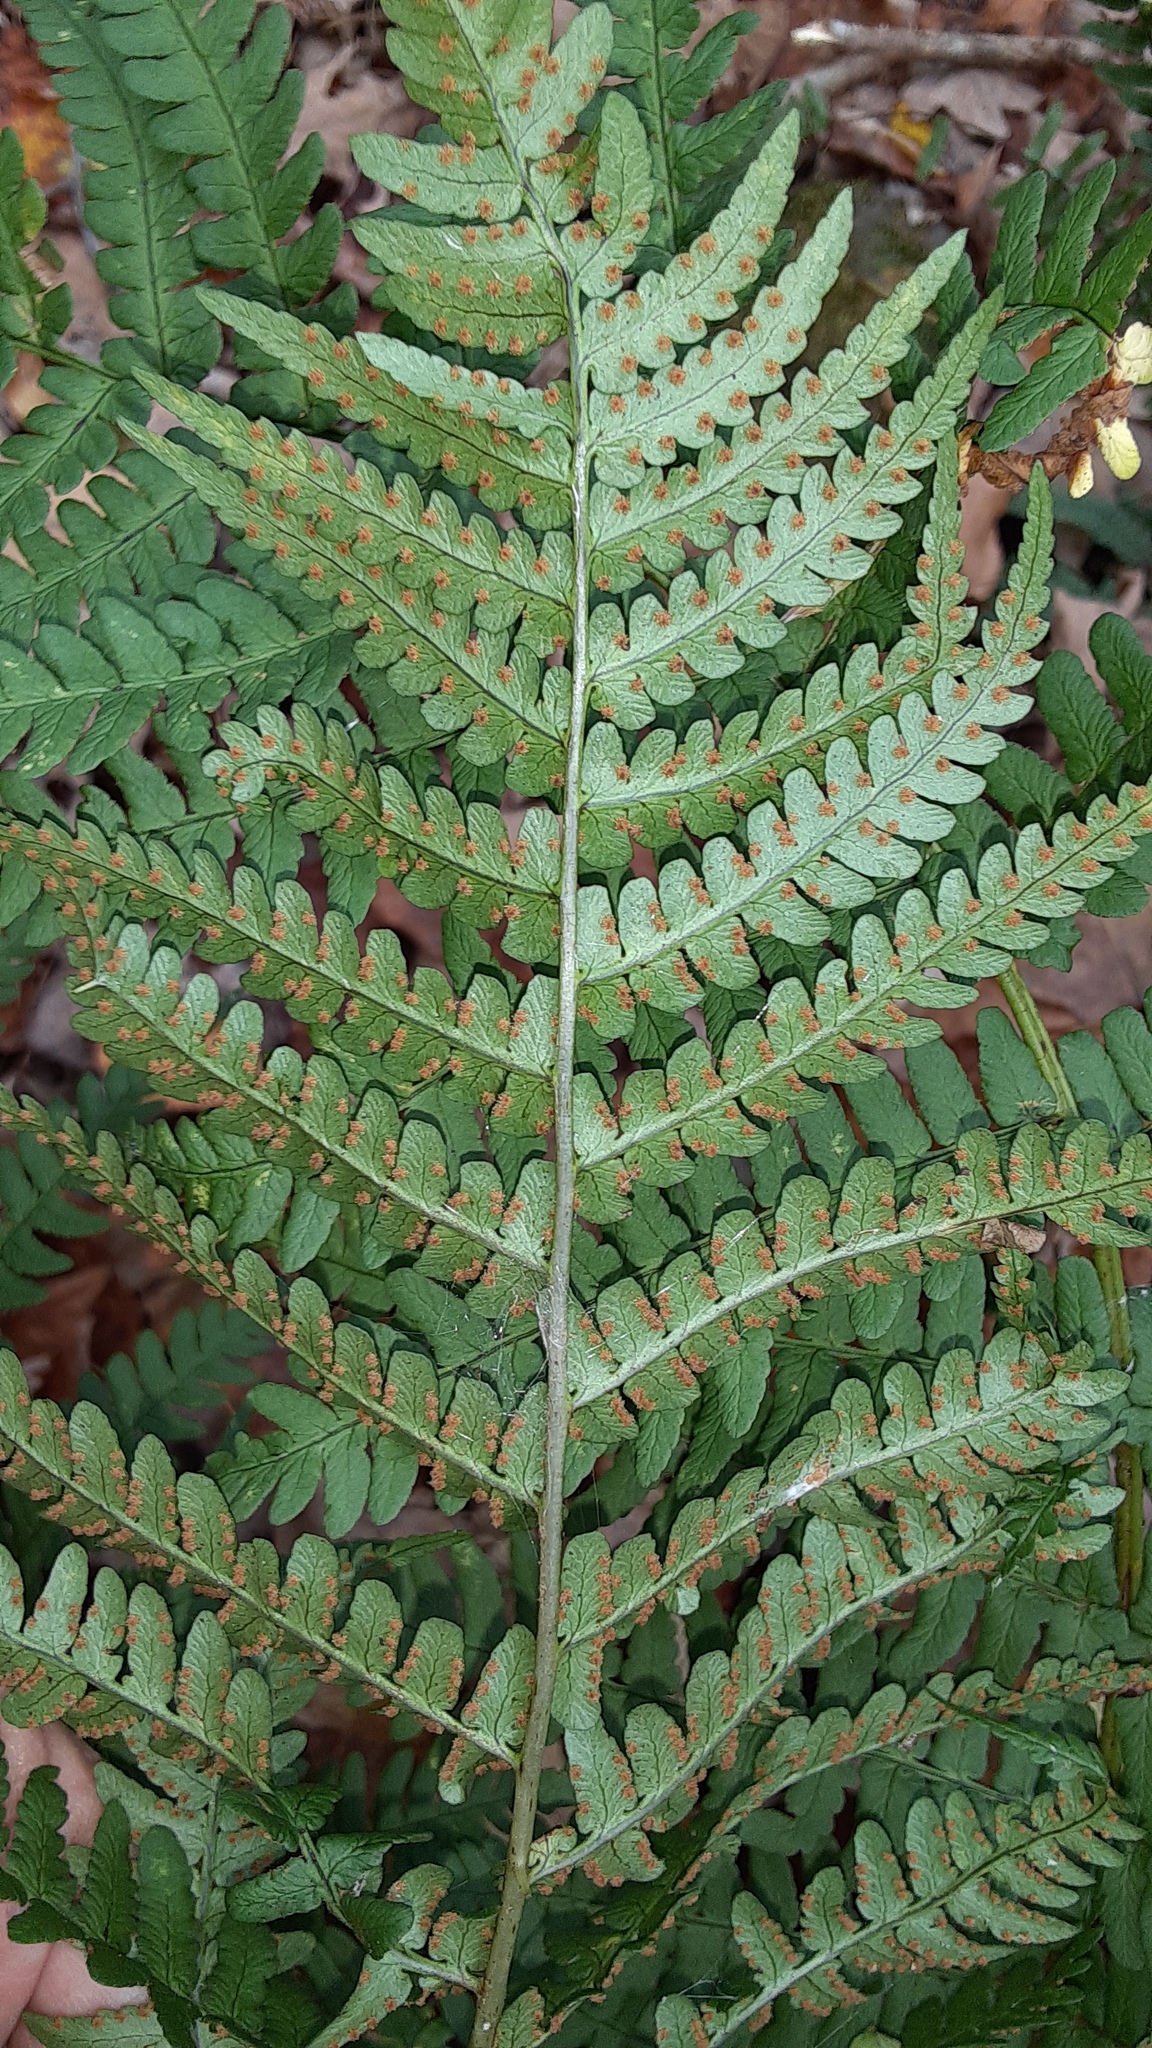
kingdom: Plantae
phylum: Tracheophyta
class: Polypodiopsida
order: Polypodiales
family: Dryopteridaceae
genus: Dryopteris
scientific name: Dryopteris marginalis
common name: Marginal wood fern
